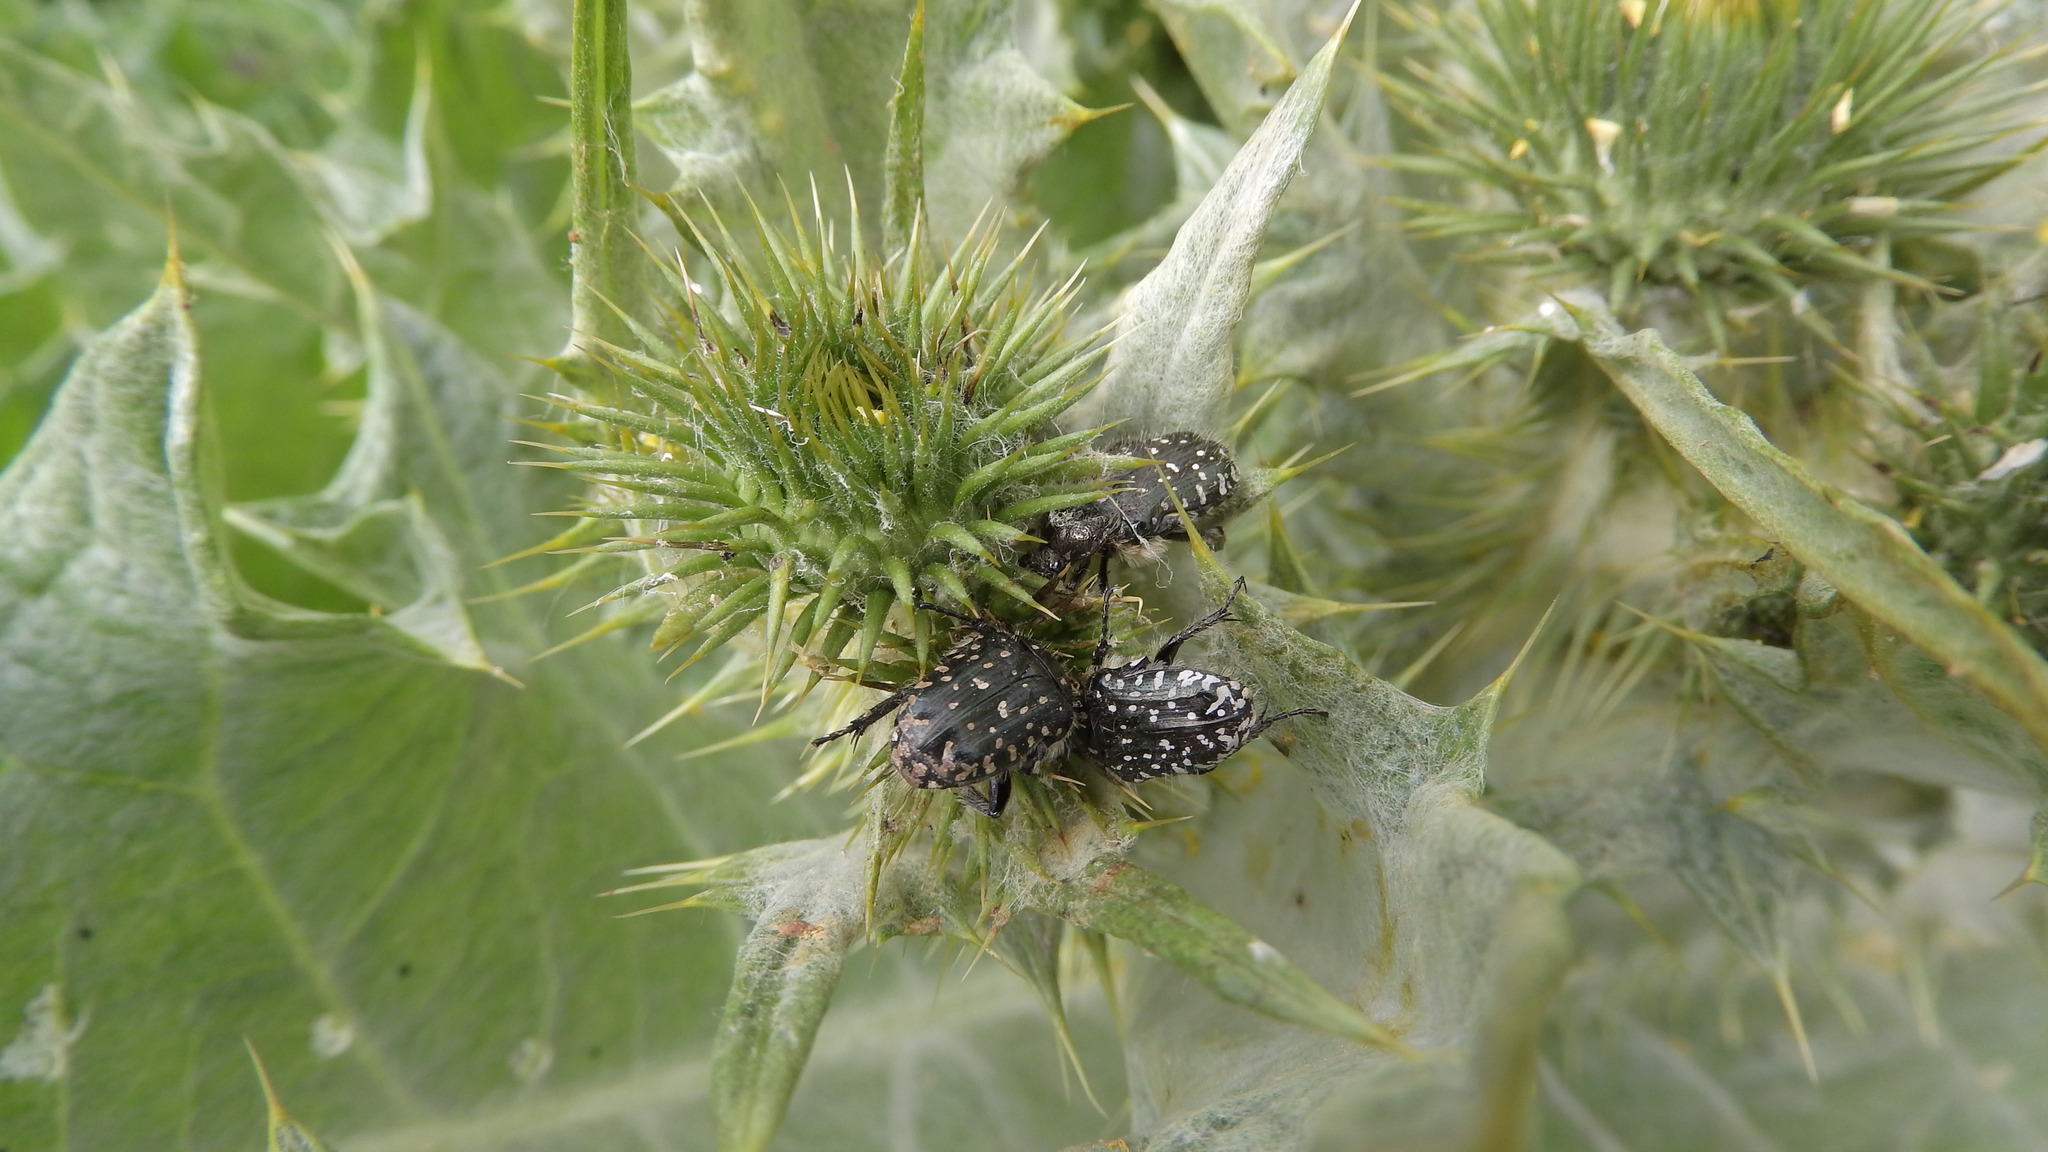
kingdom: Animalia
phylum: Arthropoda
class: Insecta
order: Coleoptera
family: Scarabaeidae
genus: Oxythyrea
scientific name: Oxythyrea funesta
